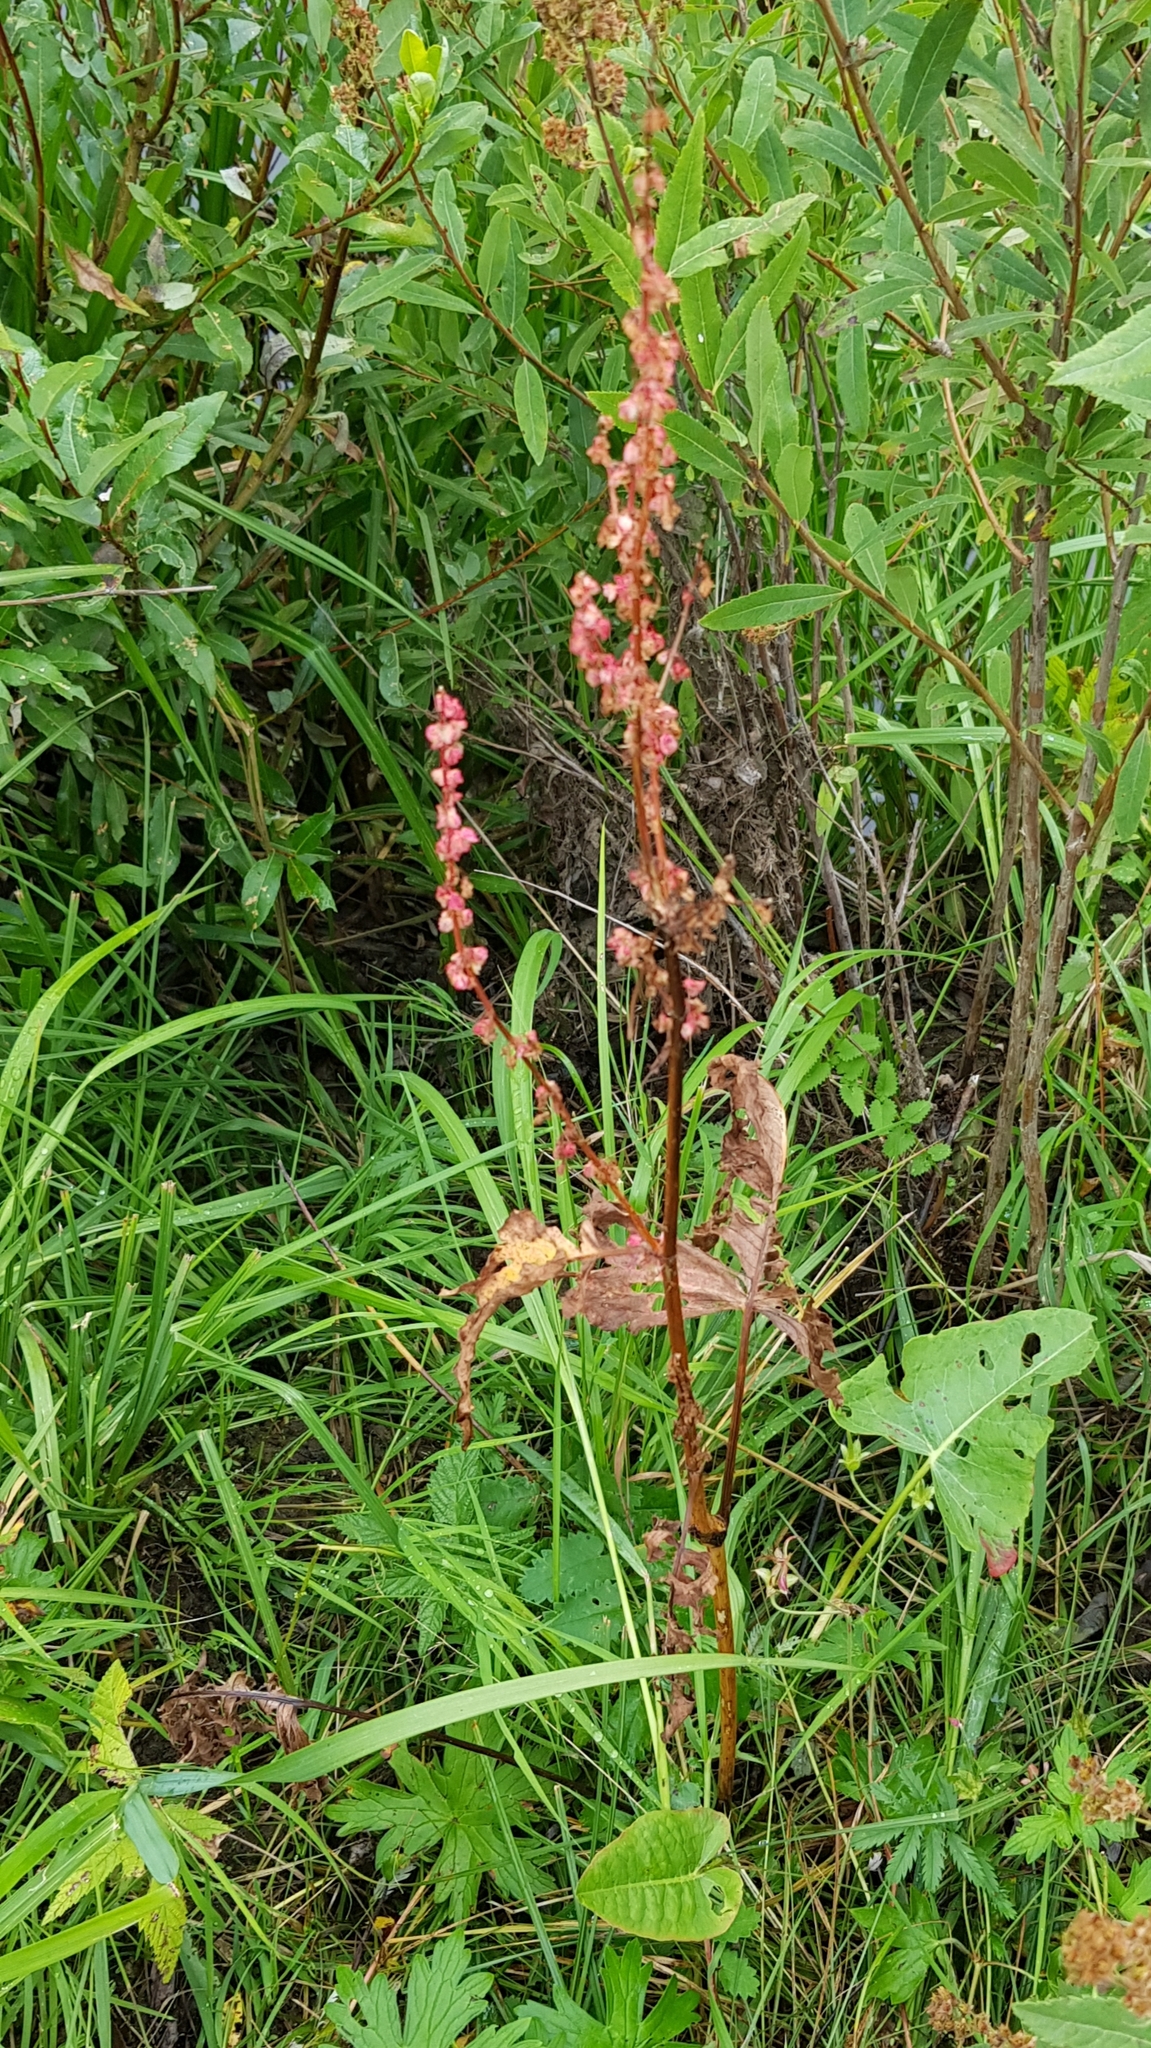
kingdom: Plantae
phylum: Tracheophyta
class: Magnoliopsida
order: Caryophyllales
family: Polygonaceae
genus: Rumex
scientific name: Rumex acetosa
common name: Garden sorrel
